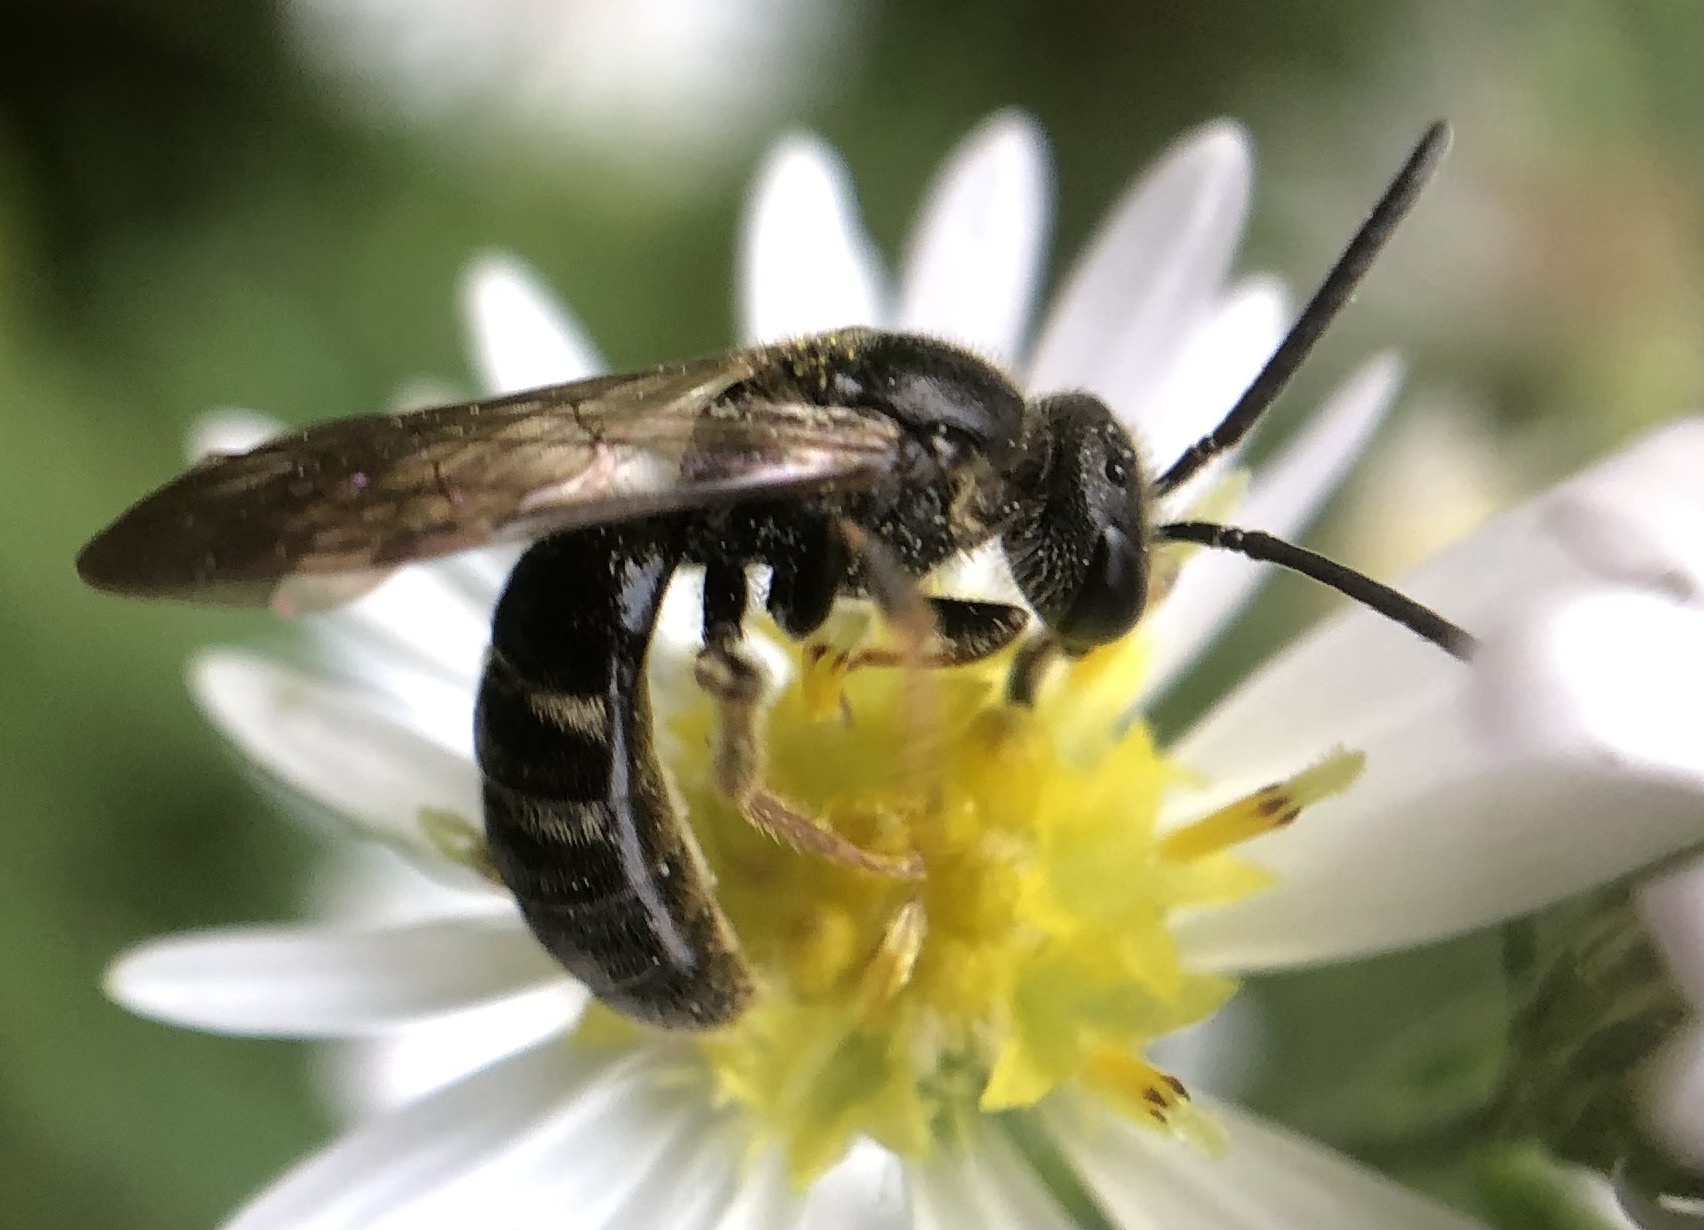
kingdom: Animalia
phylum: Arthropoda
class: Insecta
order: Hymenoptera
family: Halictidae
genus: Lasioglossum
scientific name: Lasioglossum fuscipenne
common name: Brown-winged sweat bee
